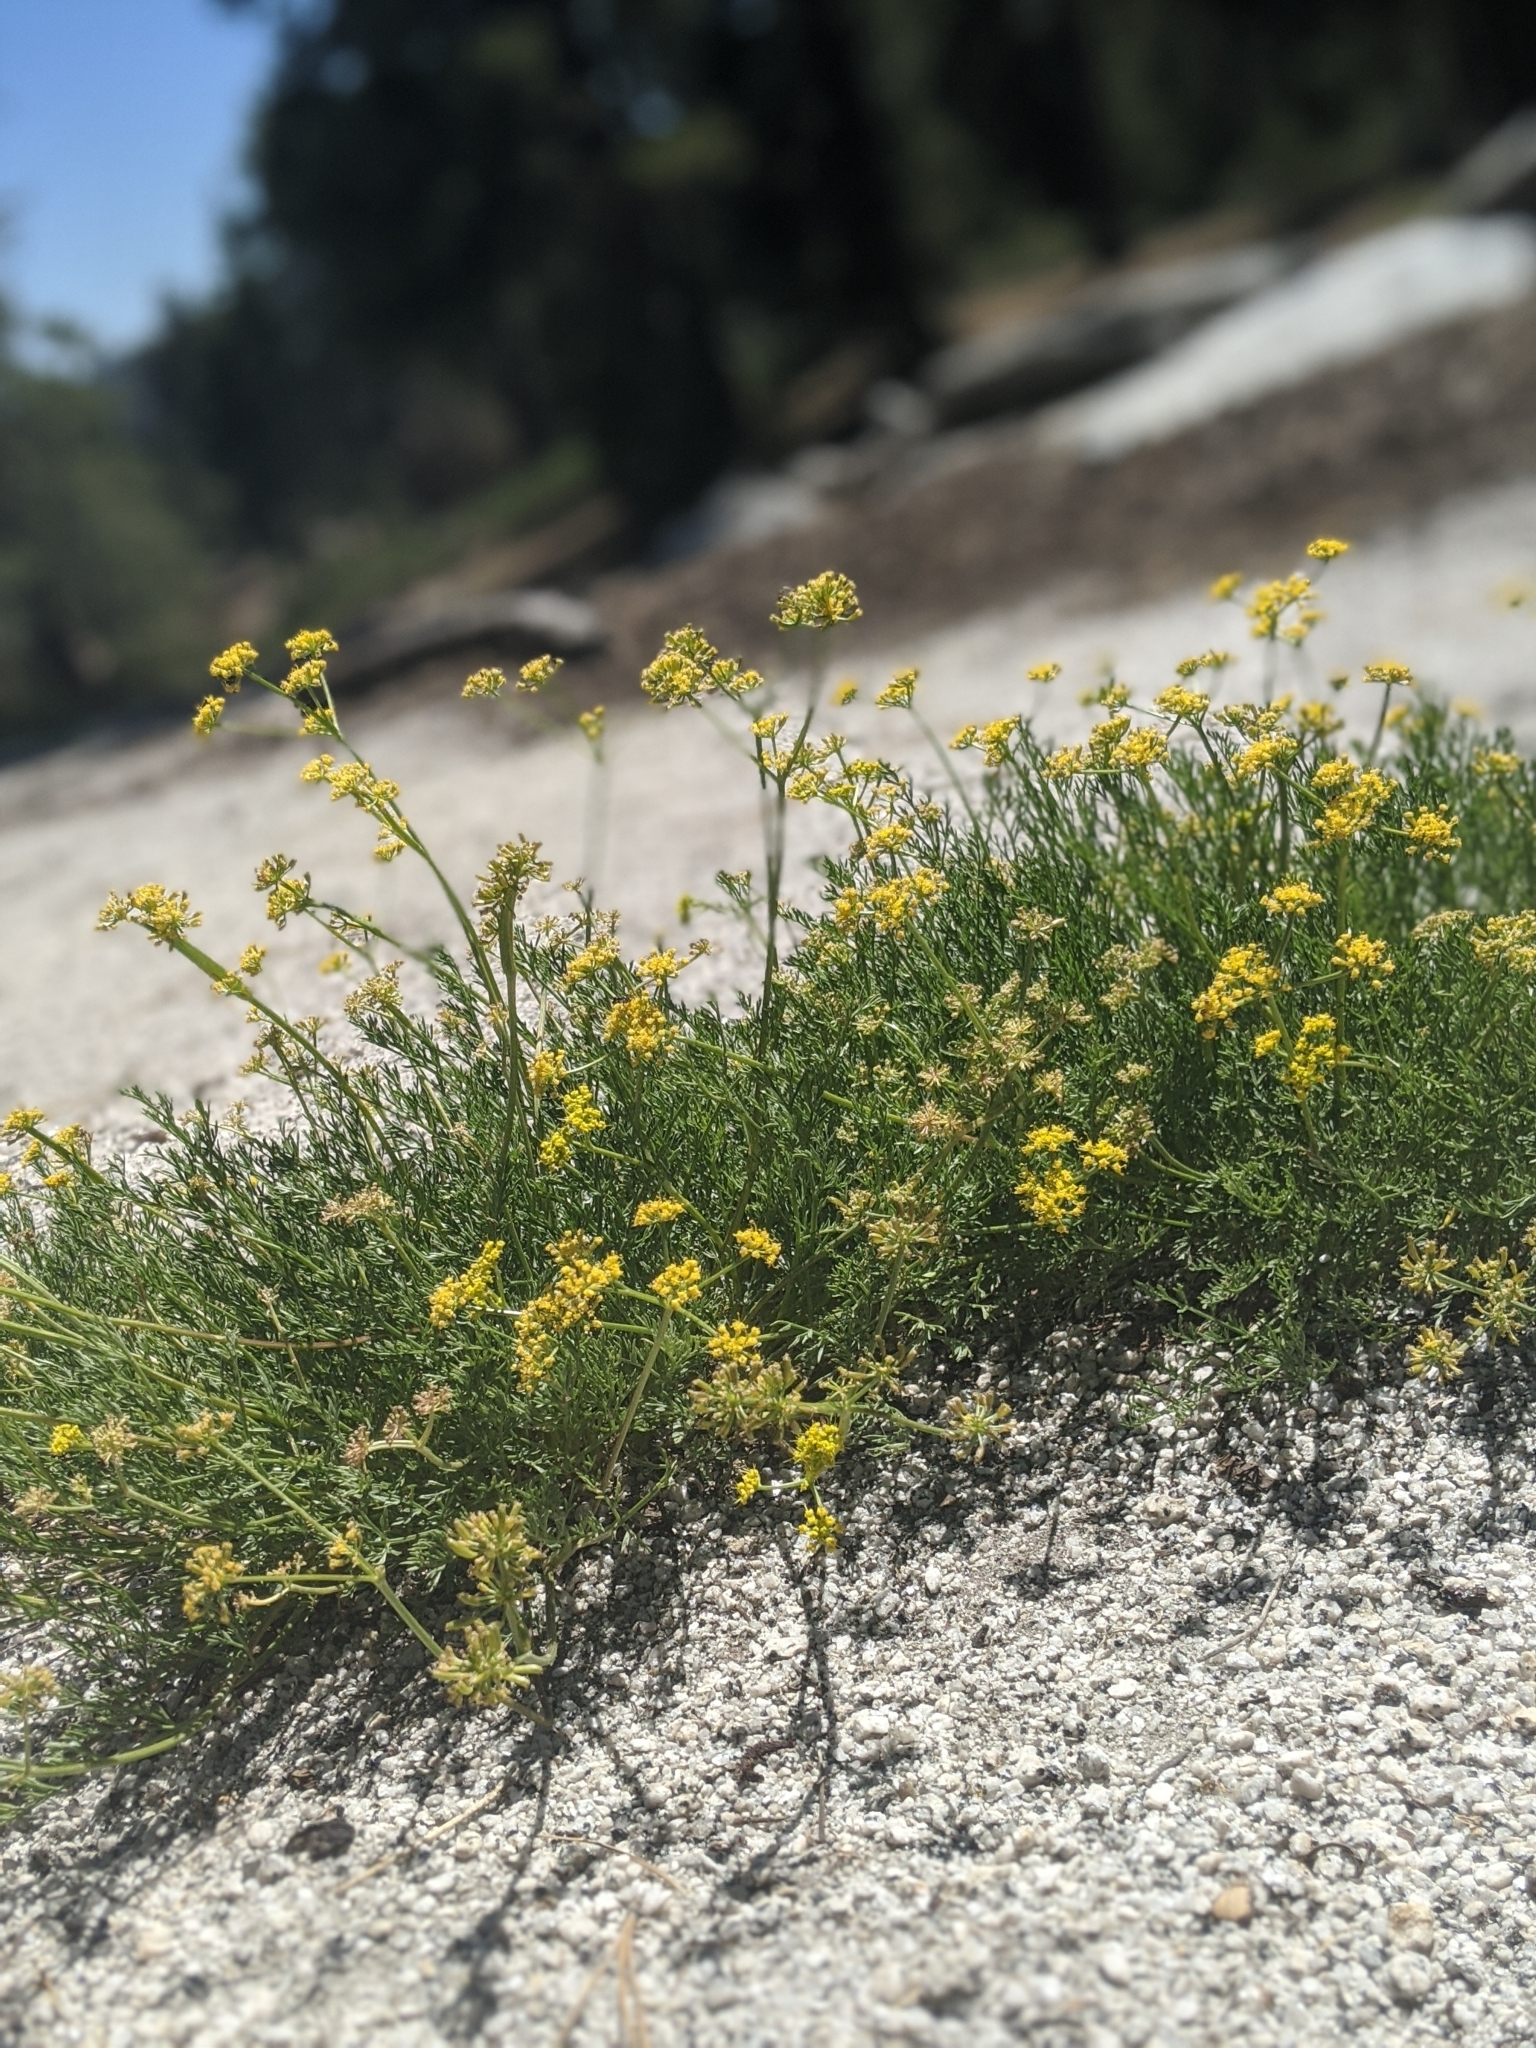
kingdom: Plantae
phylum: Tracheophyta
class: Magnoliopsida
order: Apiales
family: Apiaceae
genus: Pteryxia
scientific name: Pteryxia terebinthina
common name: Turpentine wavewing
